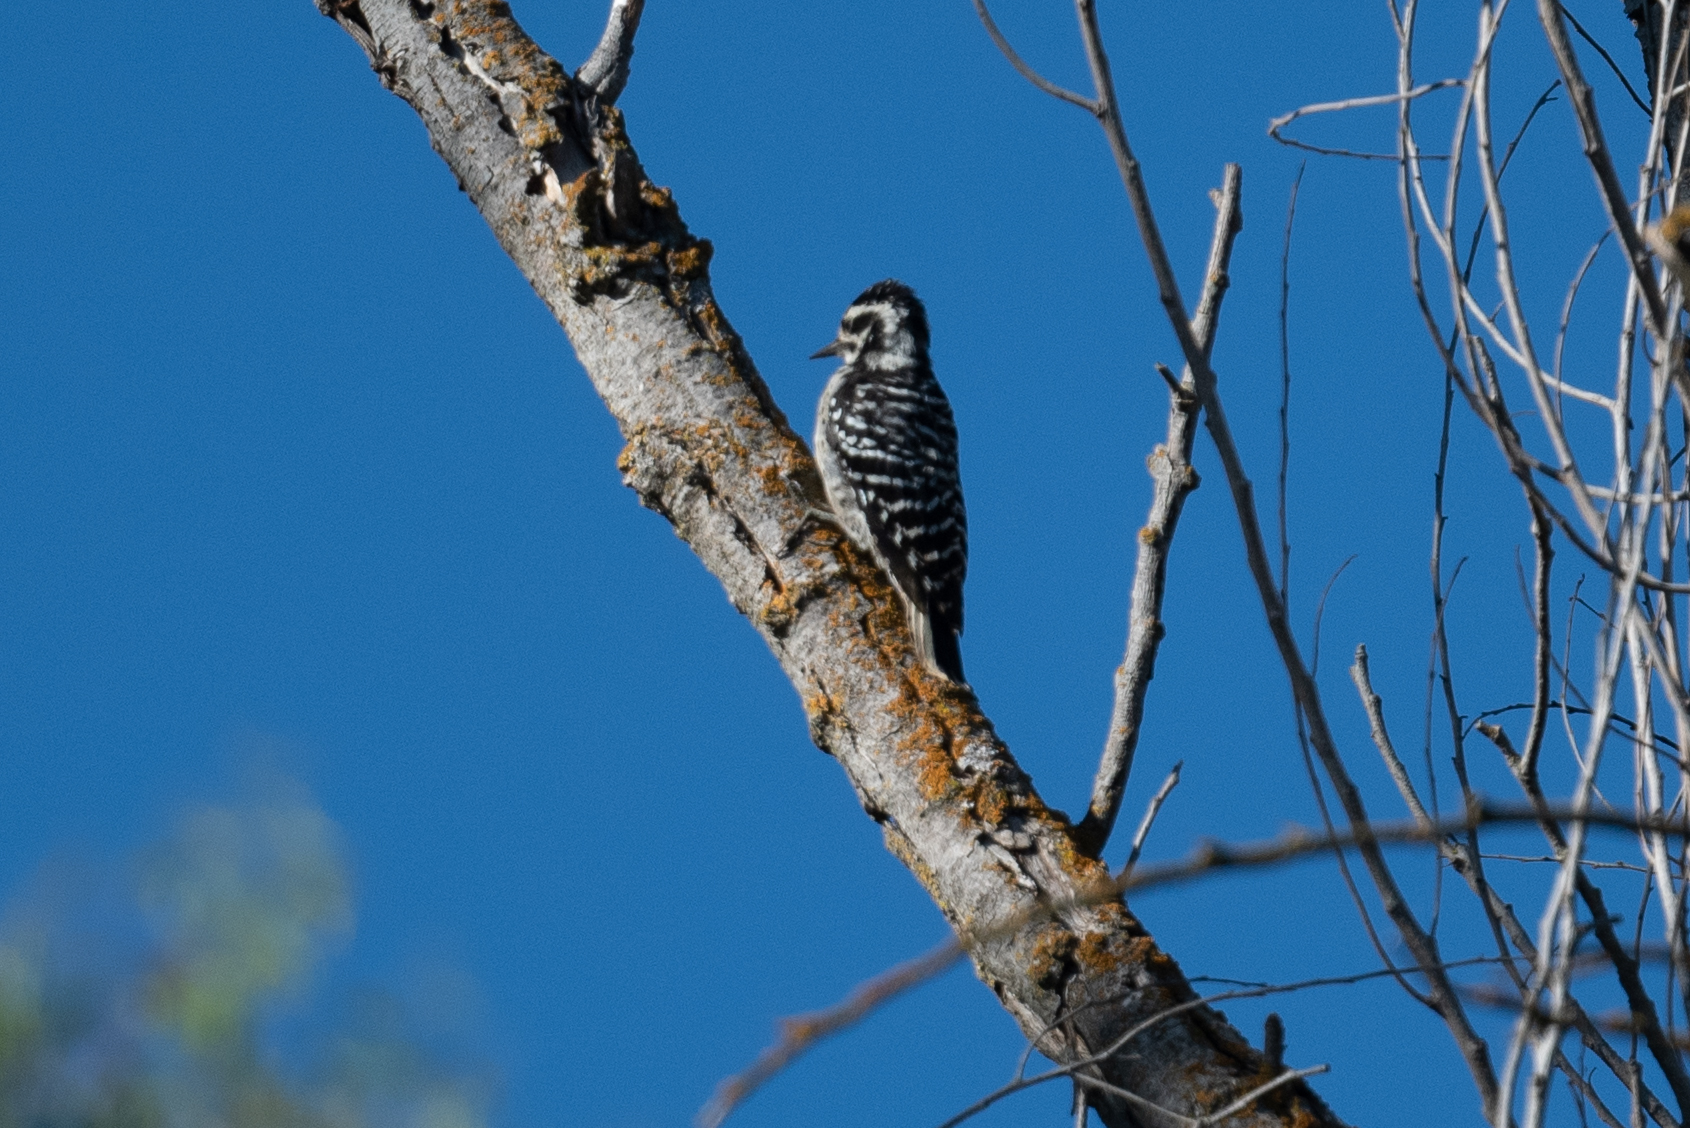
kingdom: Animalia
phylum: Chordata
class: Aves
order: Piciformes
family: Picidae
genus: Dryobates
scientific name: Dryobates nuttallii
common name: Nuttall's woodpecker
